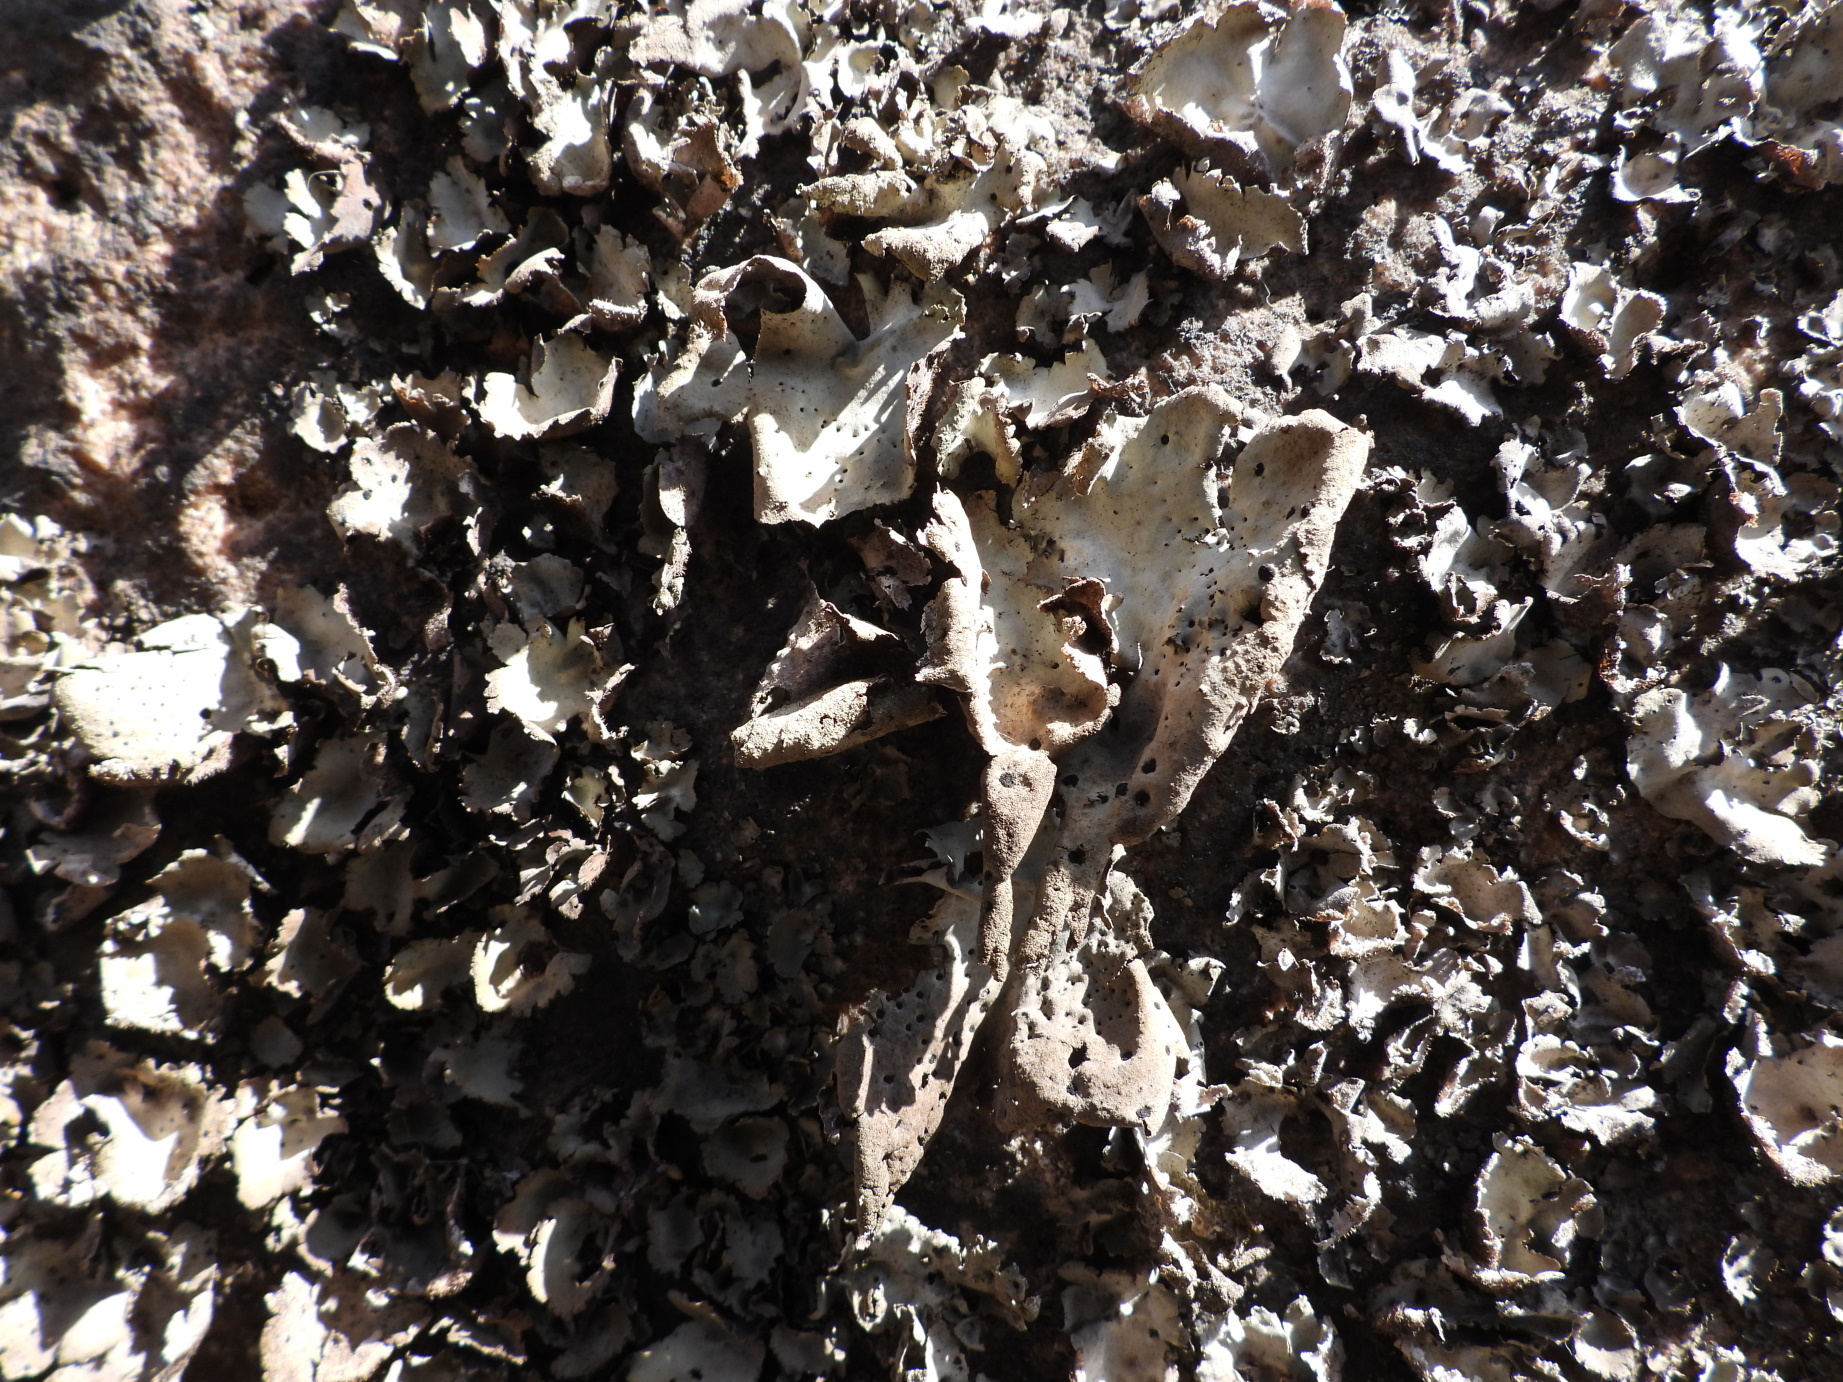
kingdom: Fungi
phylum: Ascomycota
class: Lecanoromycetes
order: Umbilicariales
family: Umbilicariaceae
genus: Umbilicaria
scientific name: Umbilicaria hirsuta
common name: Granulating rocktripe lichen
